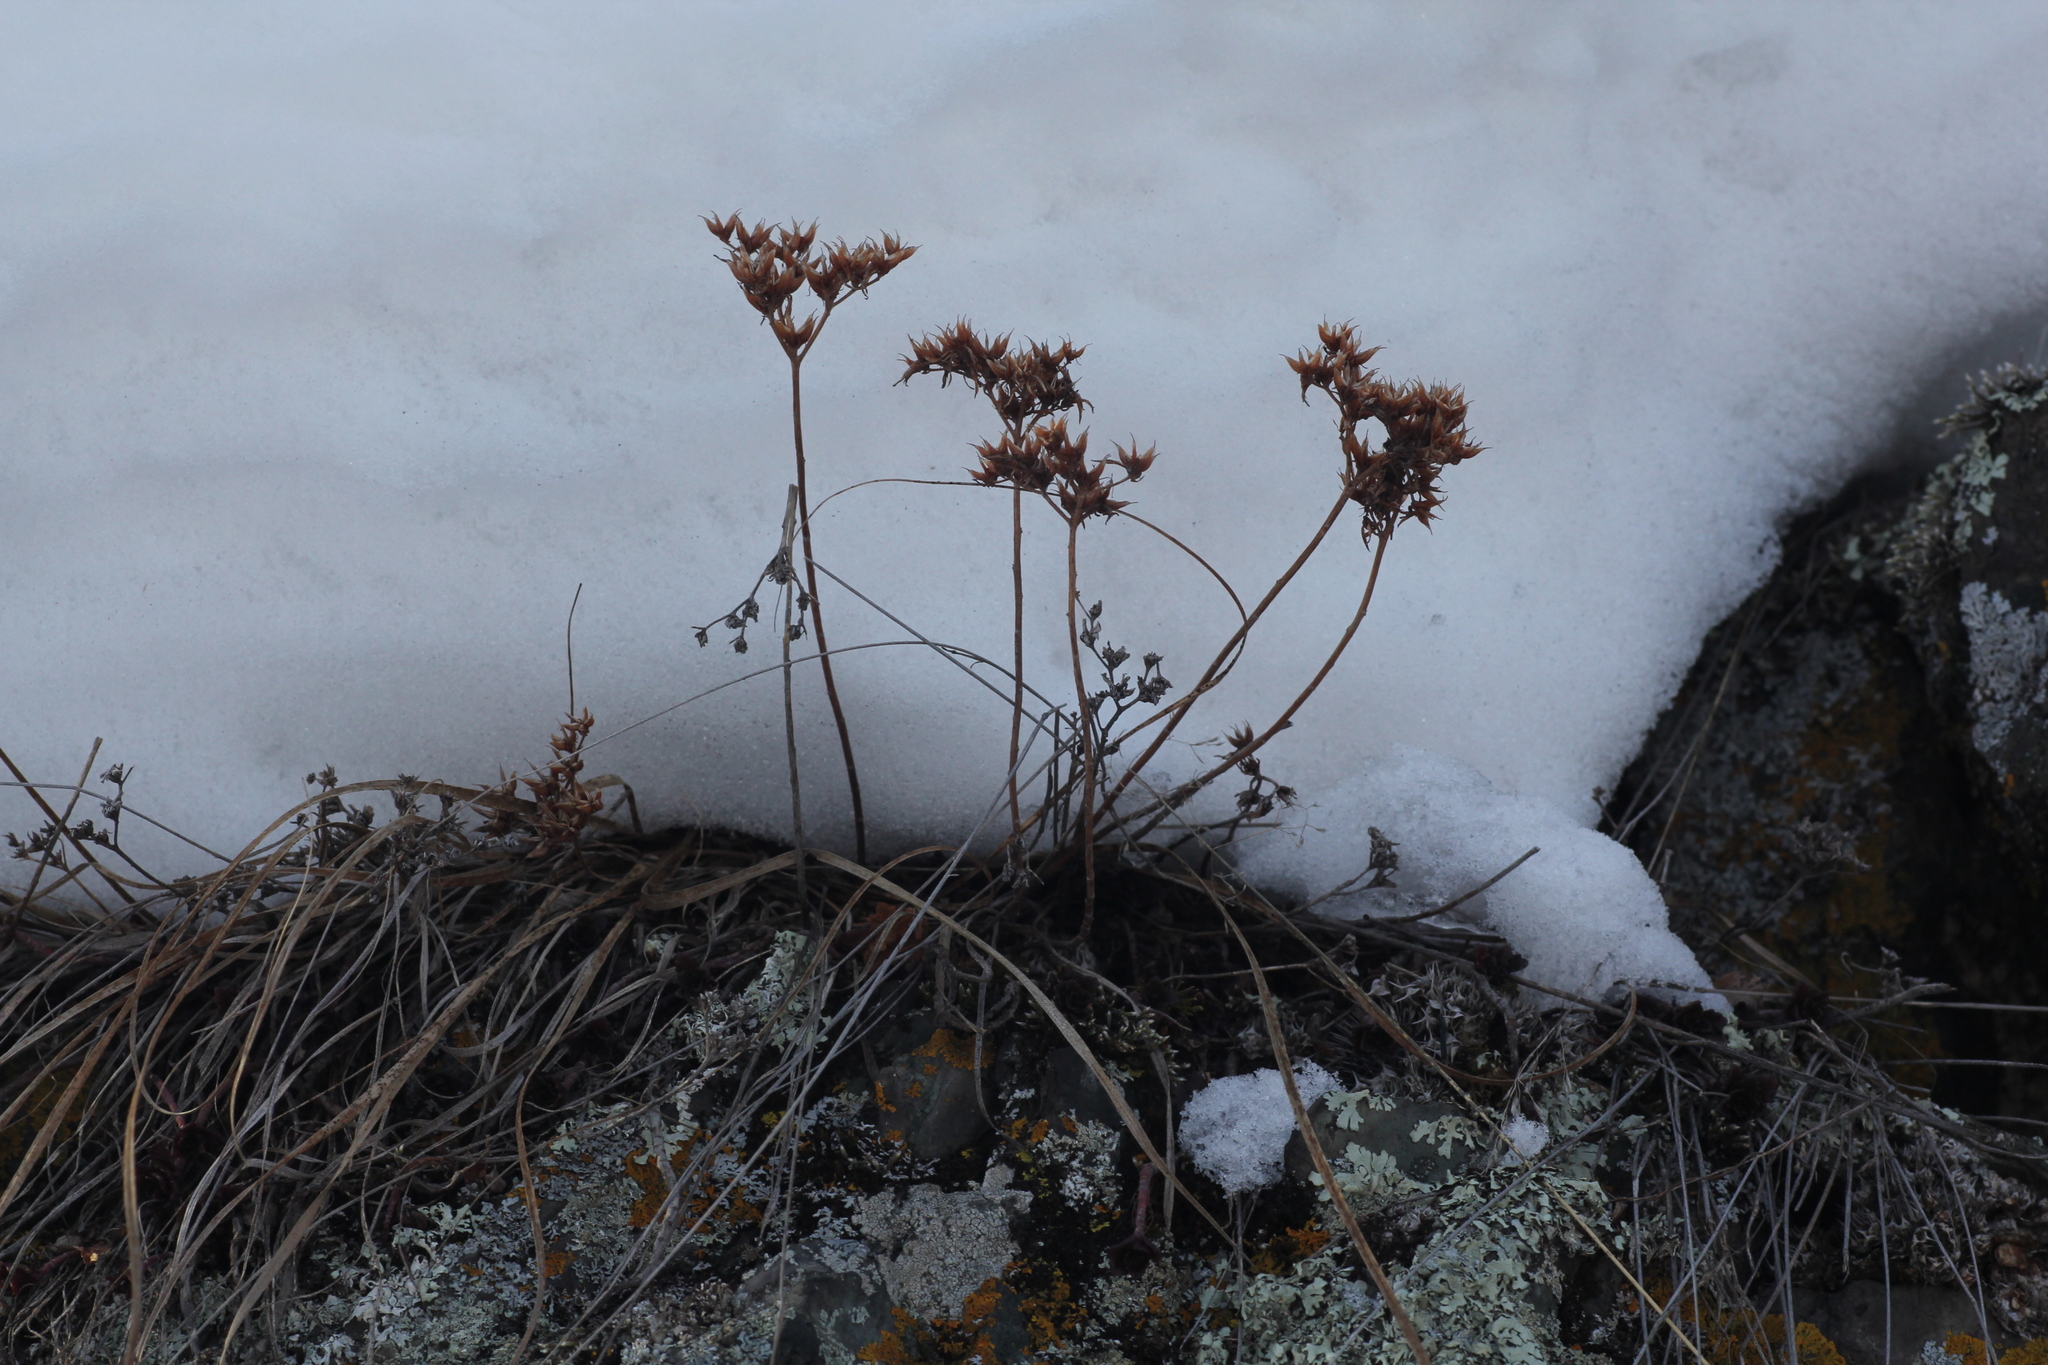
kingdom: Plantae
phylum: Tracheophyta
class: Magnoliopsida
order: Saxifragales
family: Crassulaceae
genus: Phedimus
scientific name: Phedimus hybridus
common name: Hybrid stonecrop
